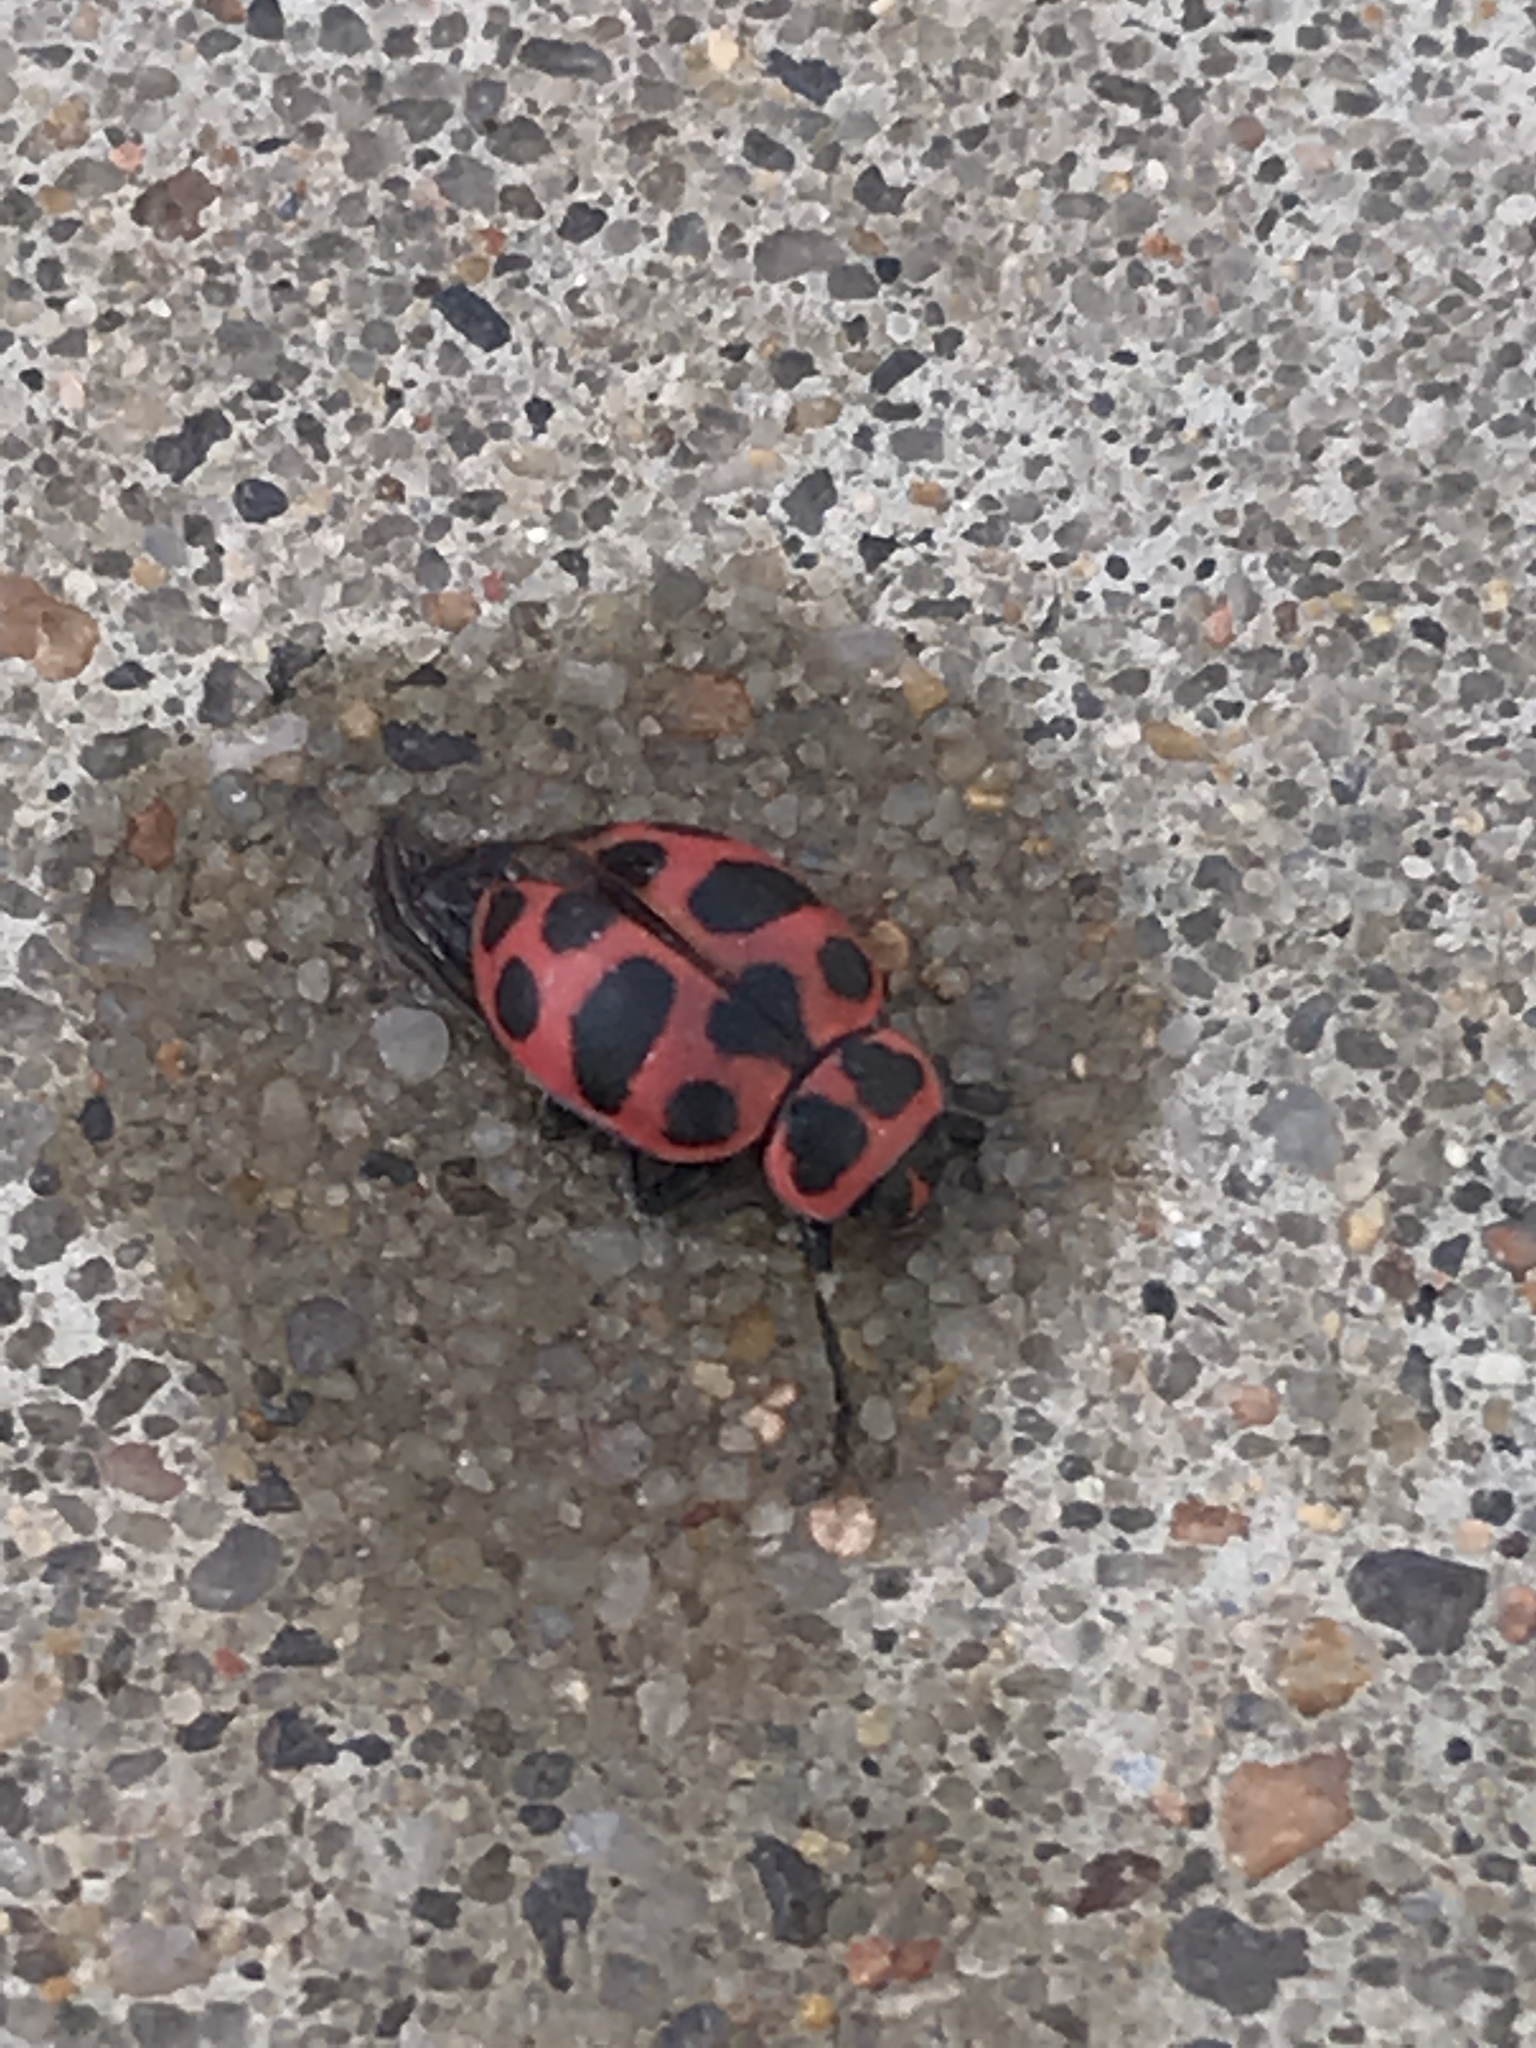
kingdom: Animalia
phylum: Arthropoda
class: Insecta
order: Coleoptera
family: Coccinellidae
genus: Coleomegilla
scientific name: Coleomegilla maculata
